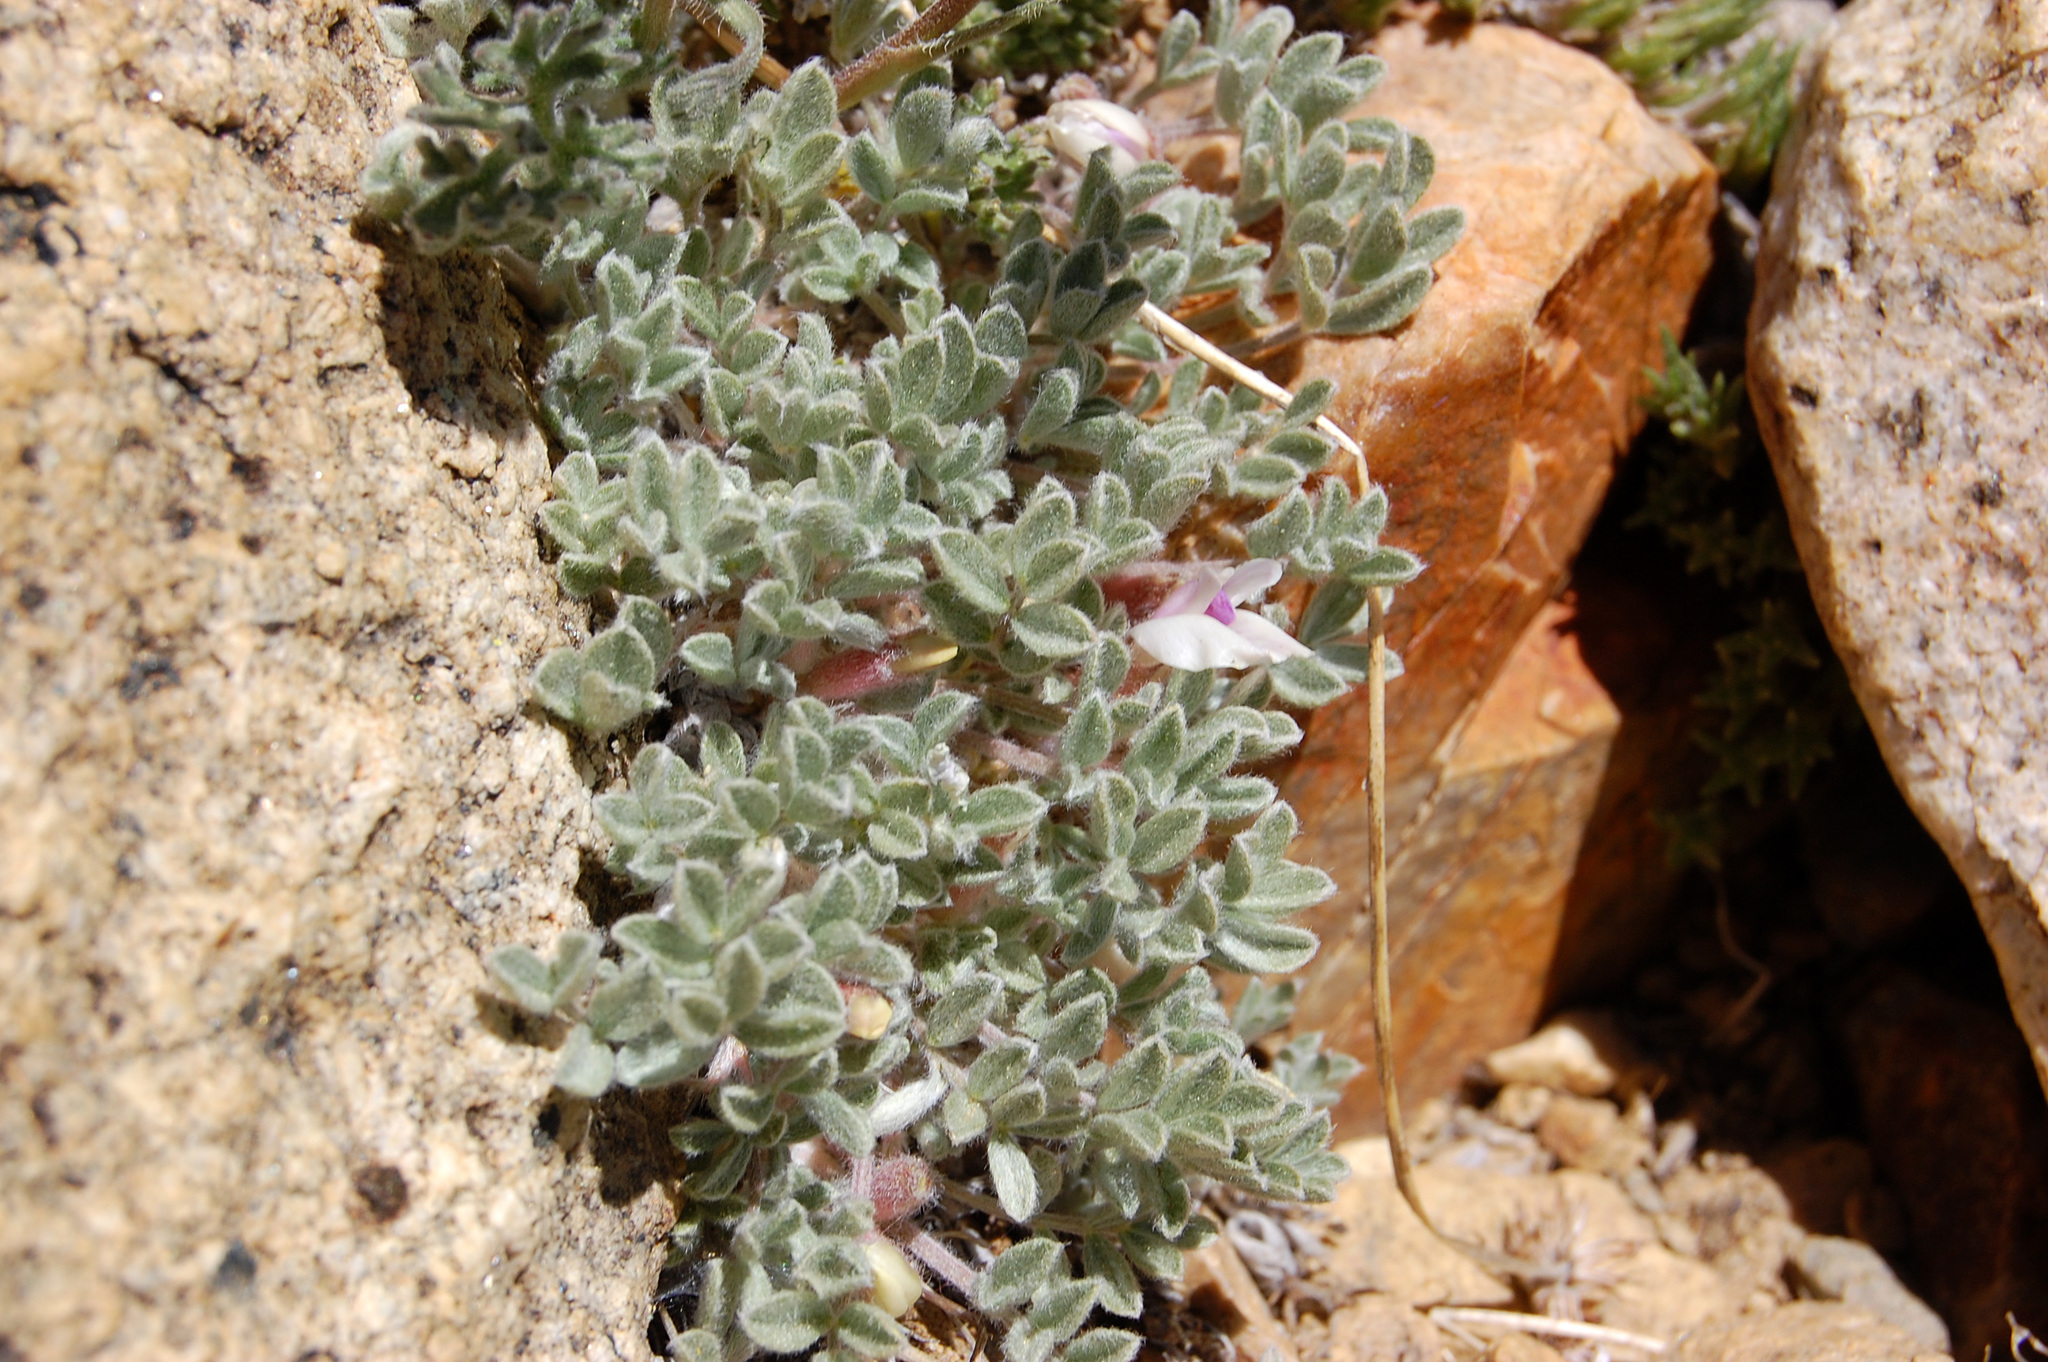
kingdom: Plantae
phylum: Tracheophyta
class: Magnoliopsida
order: Fabales
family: Fabaceae
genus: Astragalus
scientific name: Astragalus purshii
